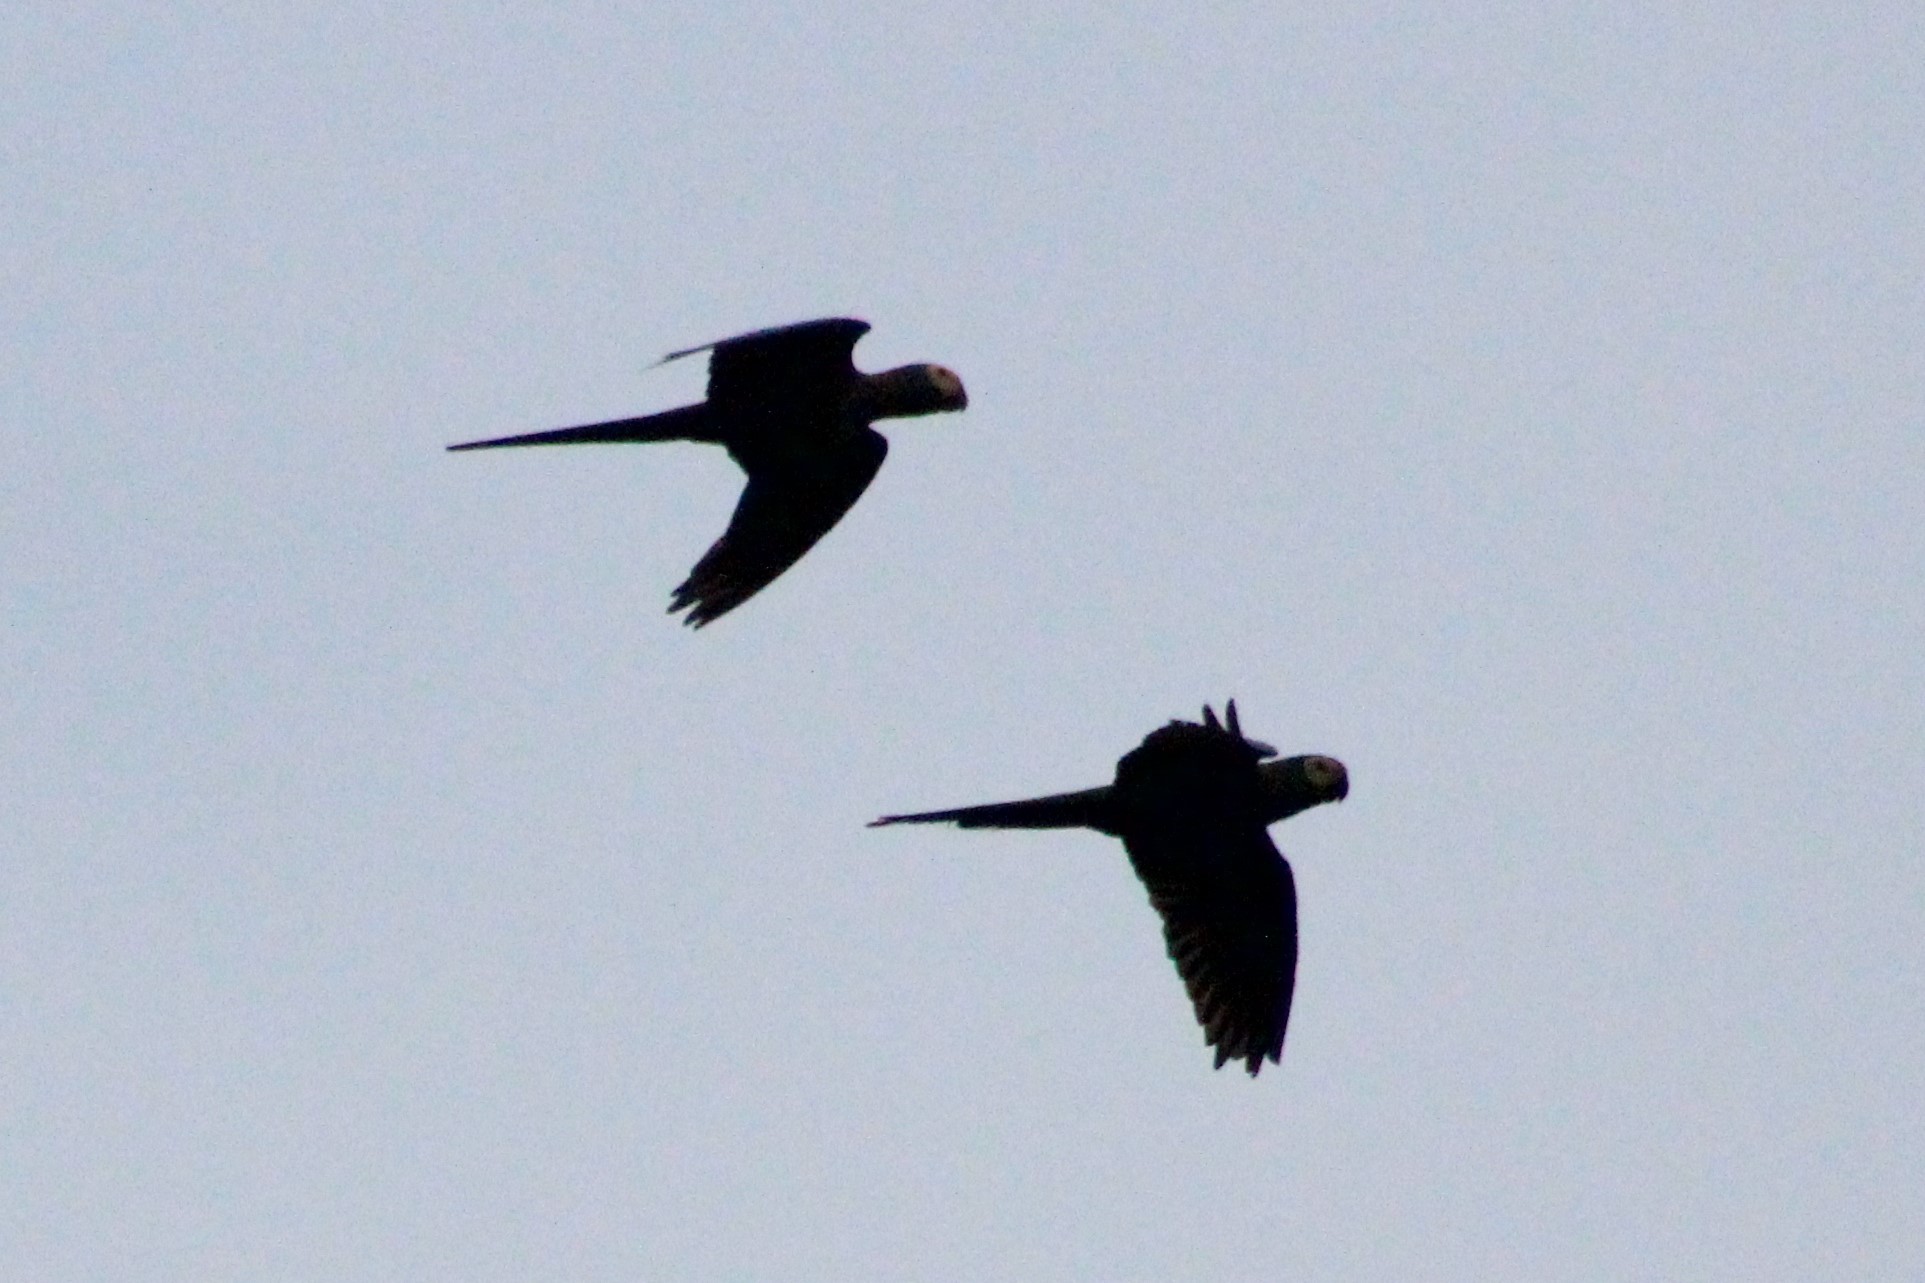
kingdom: Animalia
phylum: Chordata
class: Aves
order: Psittaciformes
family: Psittacidae
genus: Ara
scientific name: Ara severus
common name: Chestnut-fronted macaw
